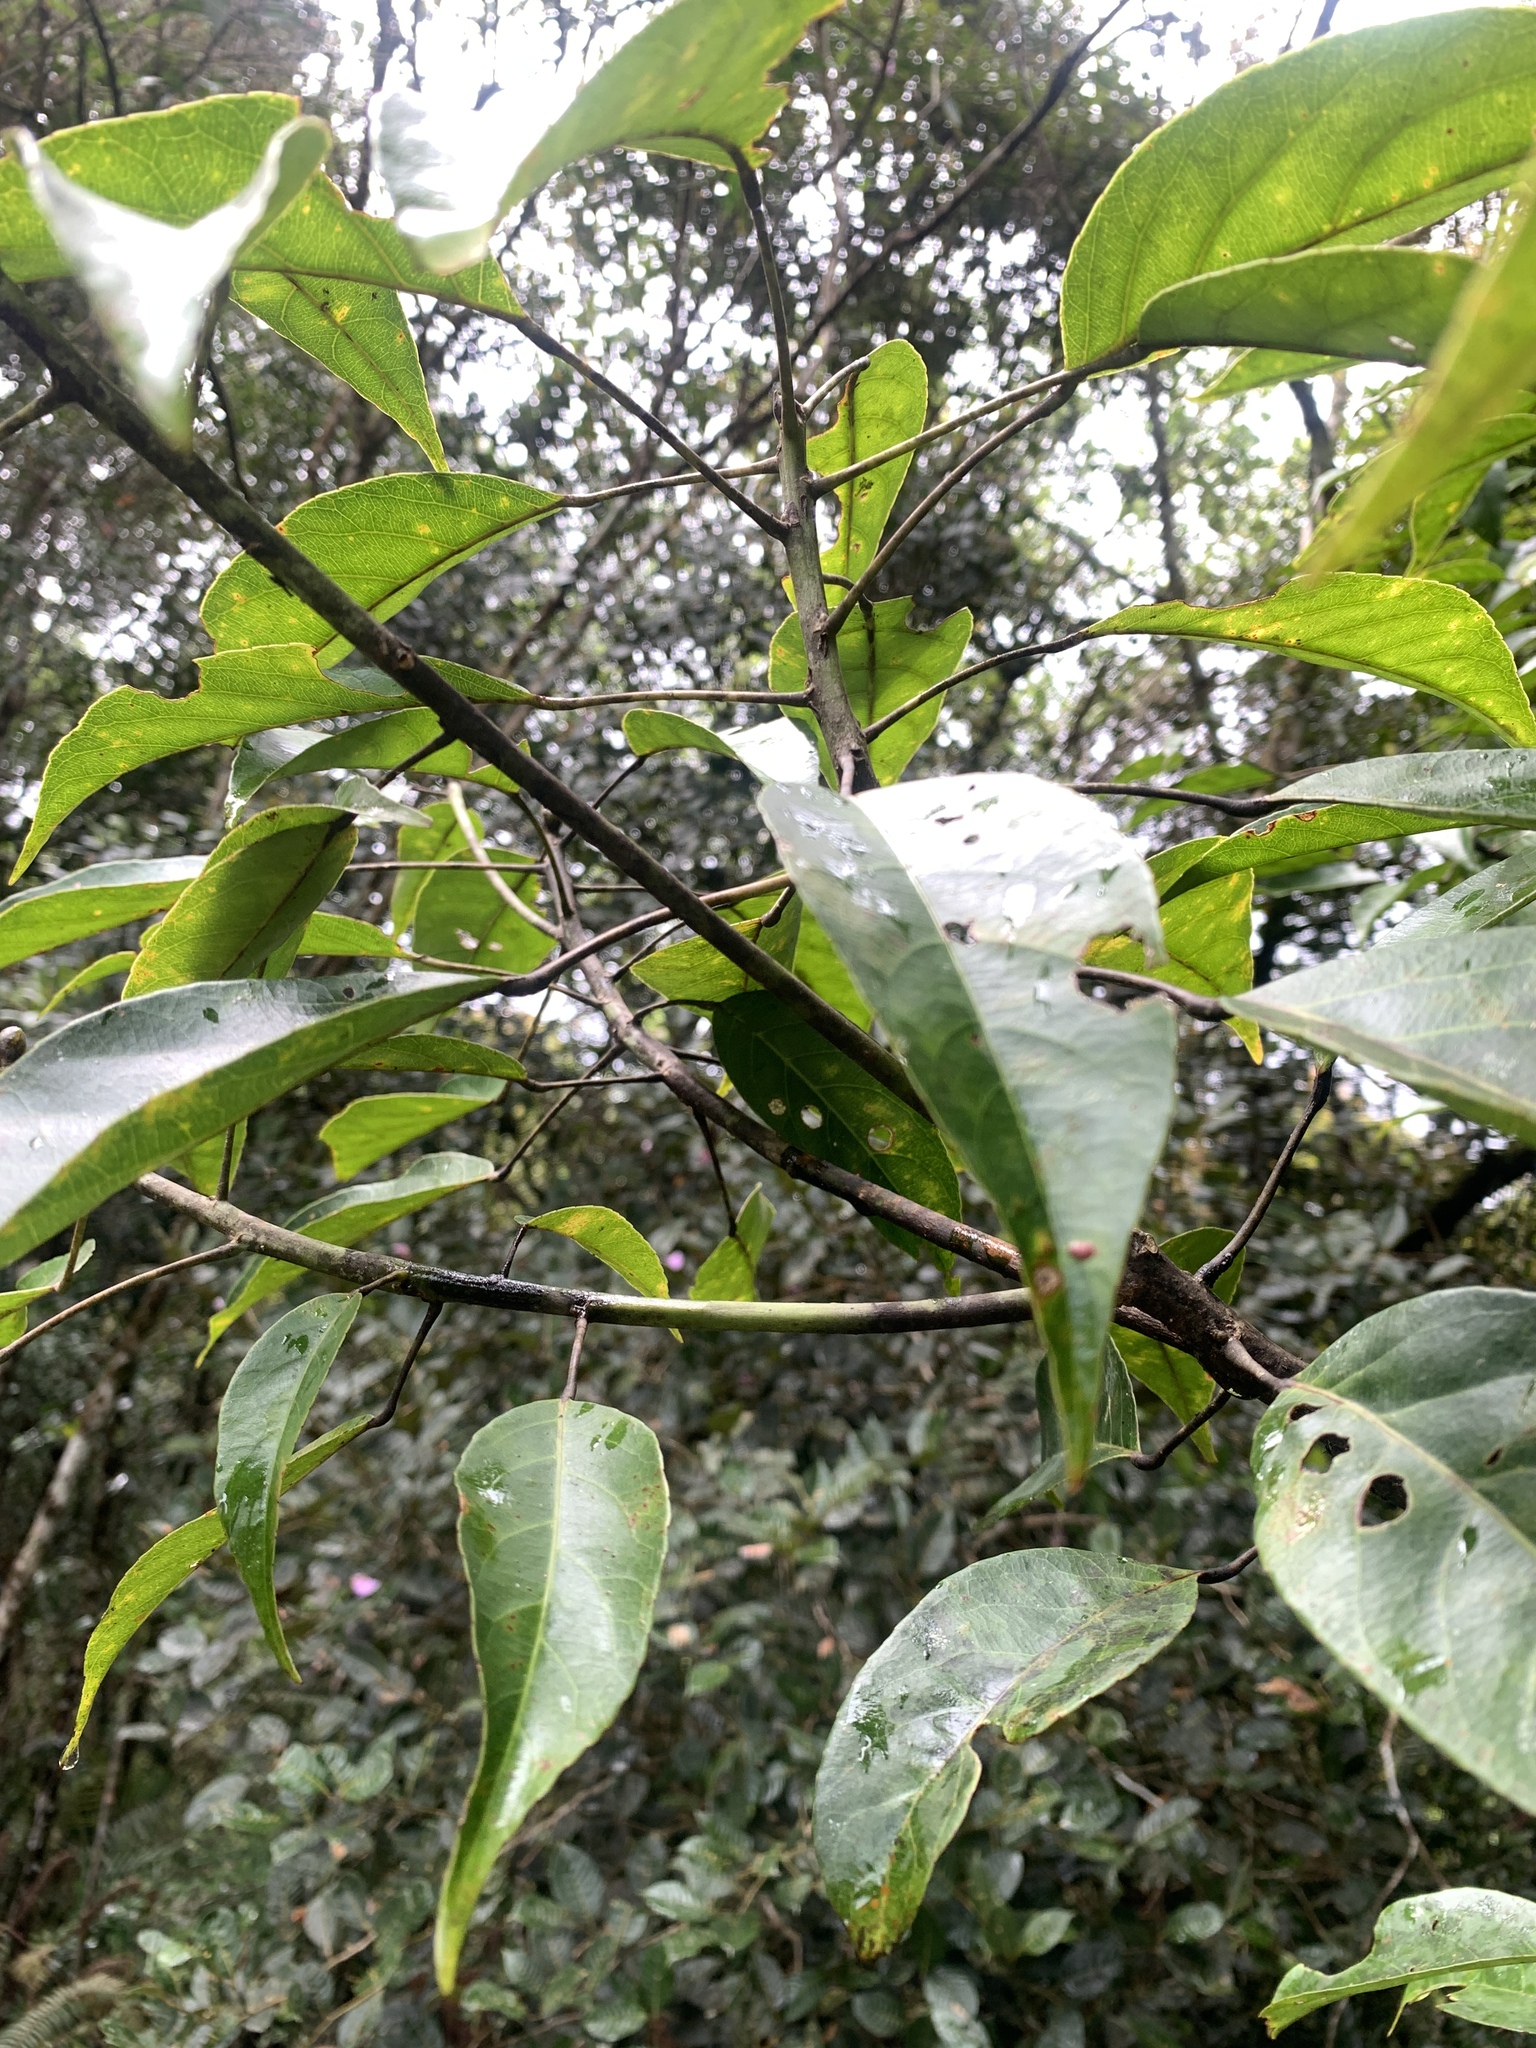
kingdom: Plantae
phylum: Tracheophyta
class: Magnoliopsida
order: Oxalidales
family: Elaeocarpaceae
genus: Elaeocarpus
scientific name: Elaeocarpus polystachyus
